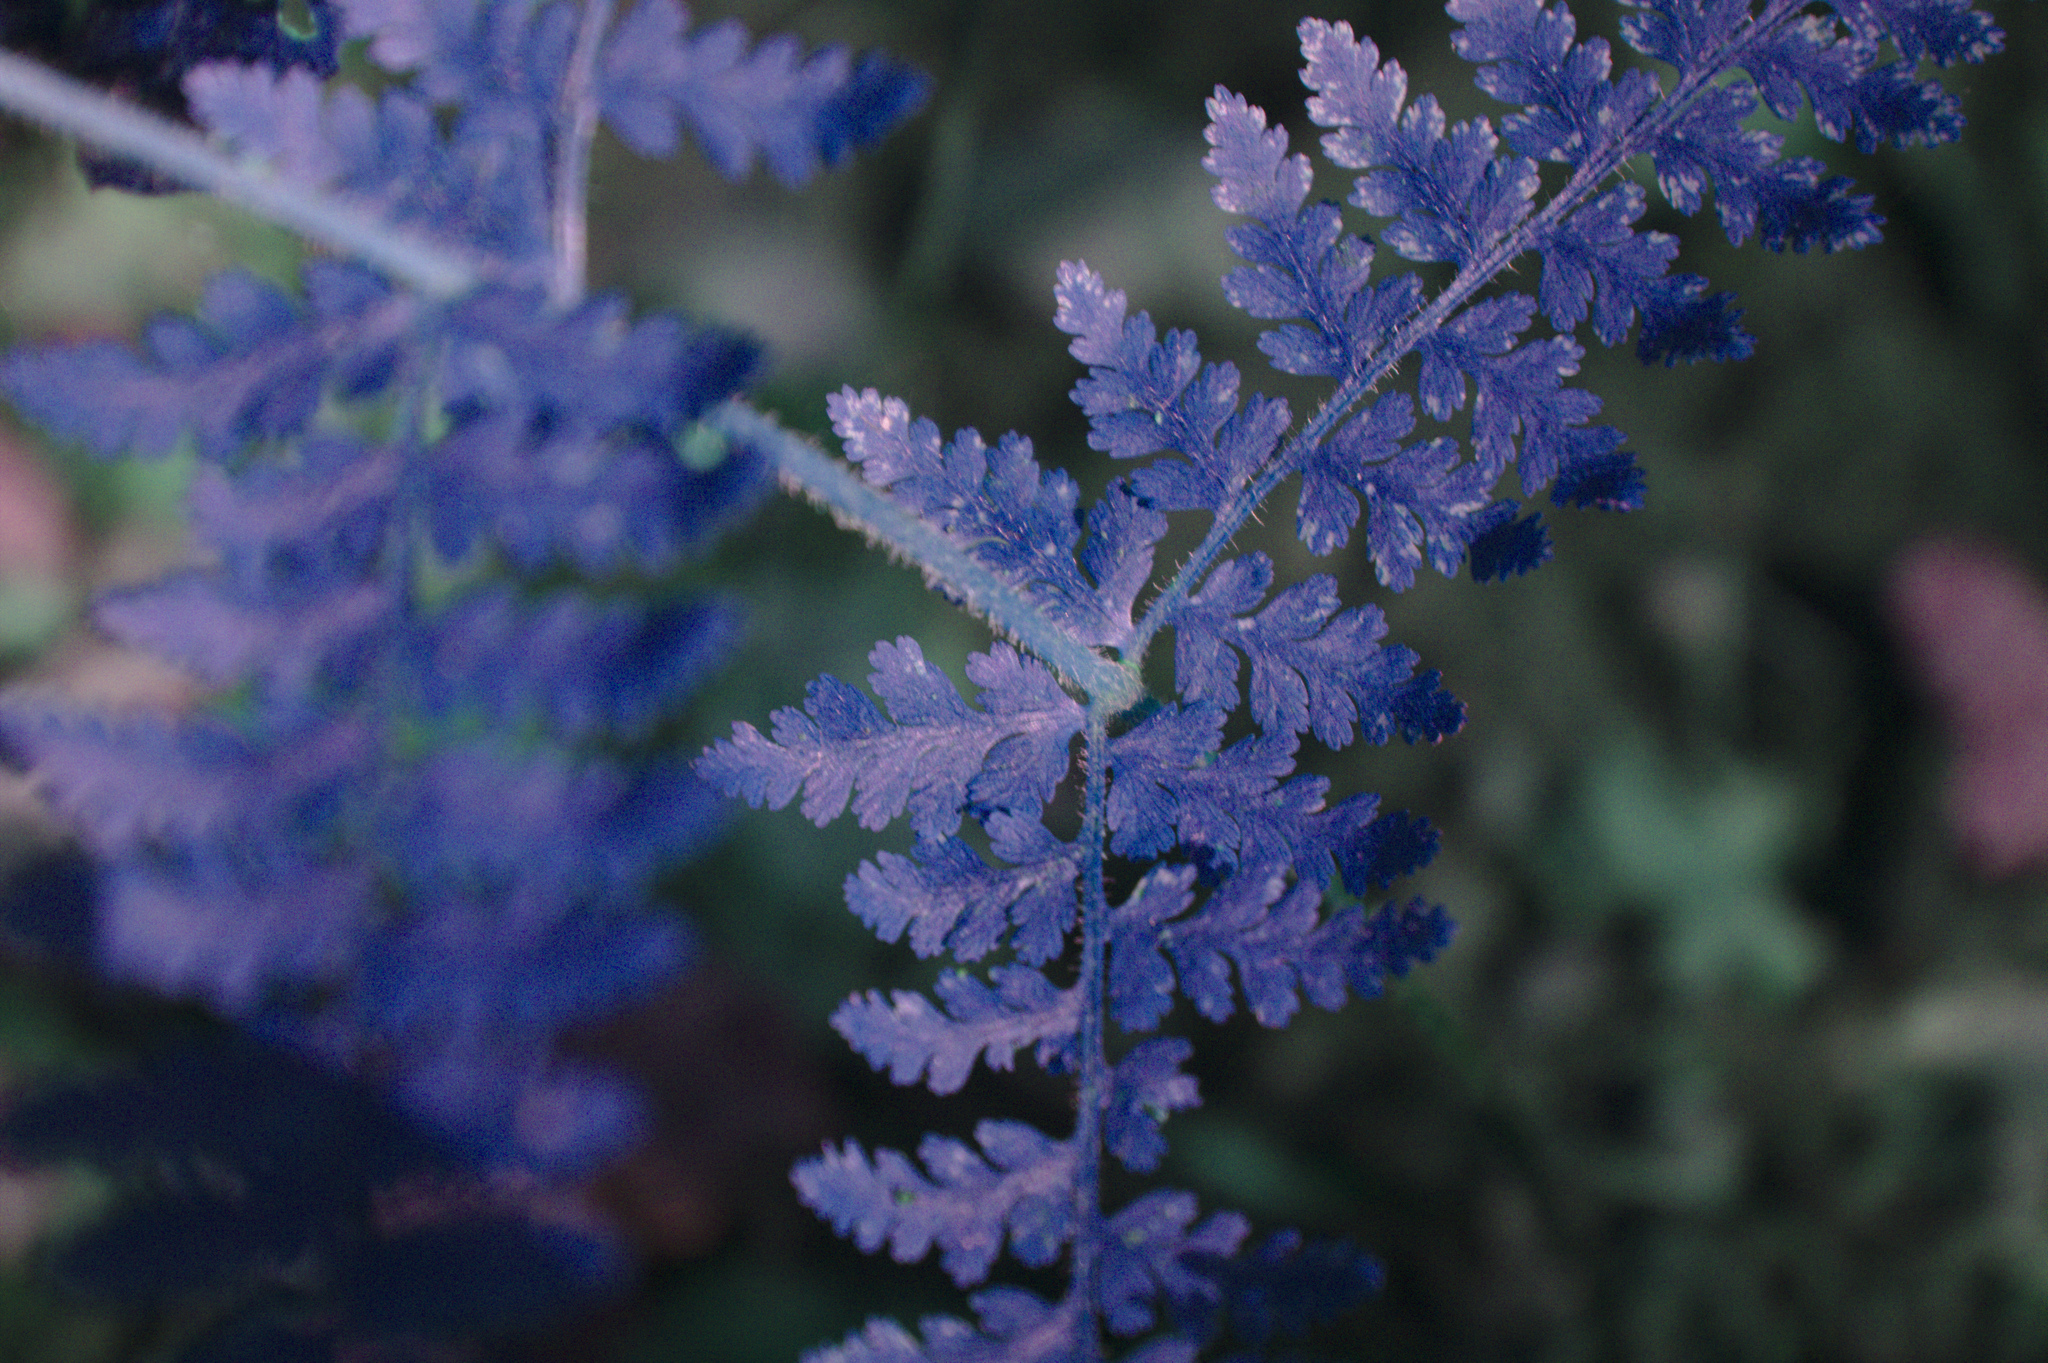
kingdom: Plantae
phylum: Tracheophyta
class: Polypodiopsida
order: Polypodiales
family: Dennstaedtiaceae
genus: Sitobolium
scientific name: Sitobolium punctilobum
